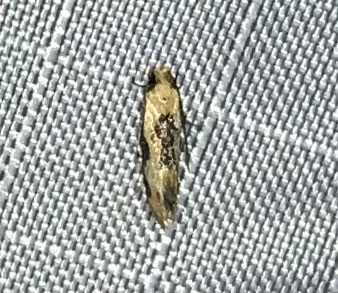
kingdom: Animalia
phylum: Arthropoda
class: Insecta
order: Lepidoptera
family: Meessiidae
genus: Hybroma
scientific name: Hybroma servulella
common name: Yellow wave moth
